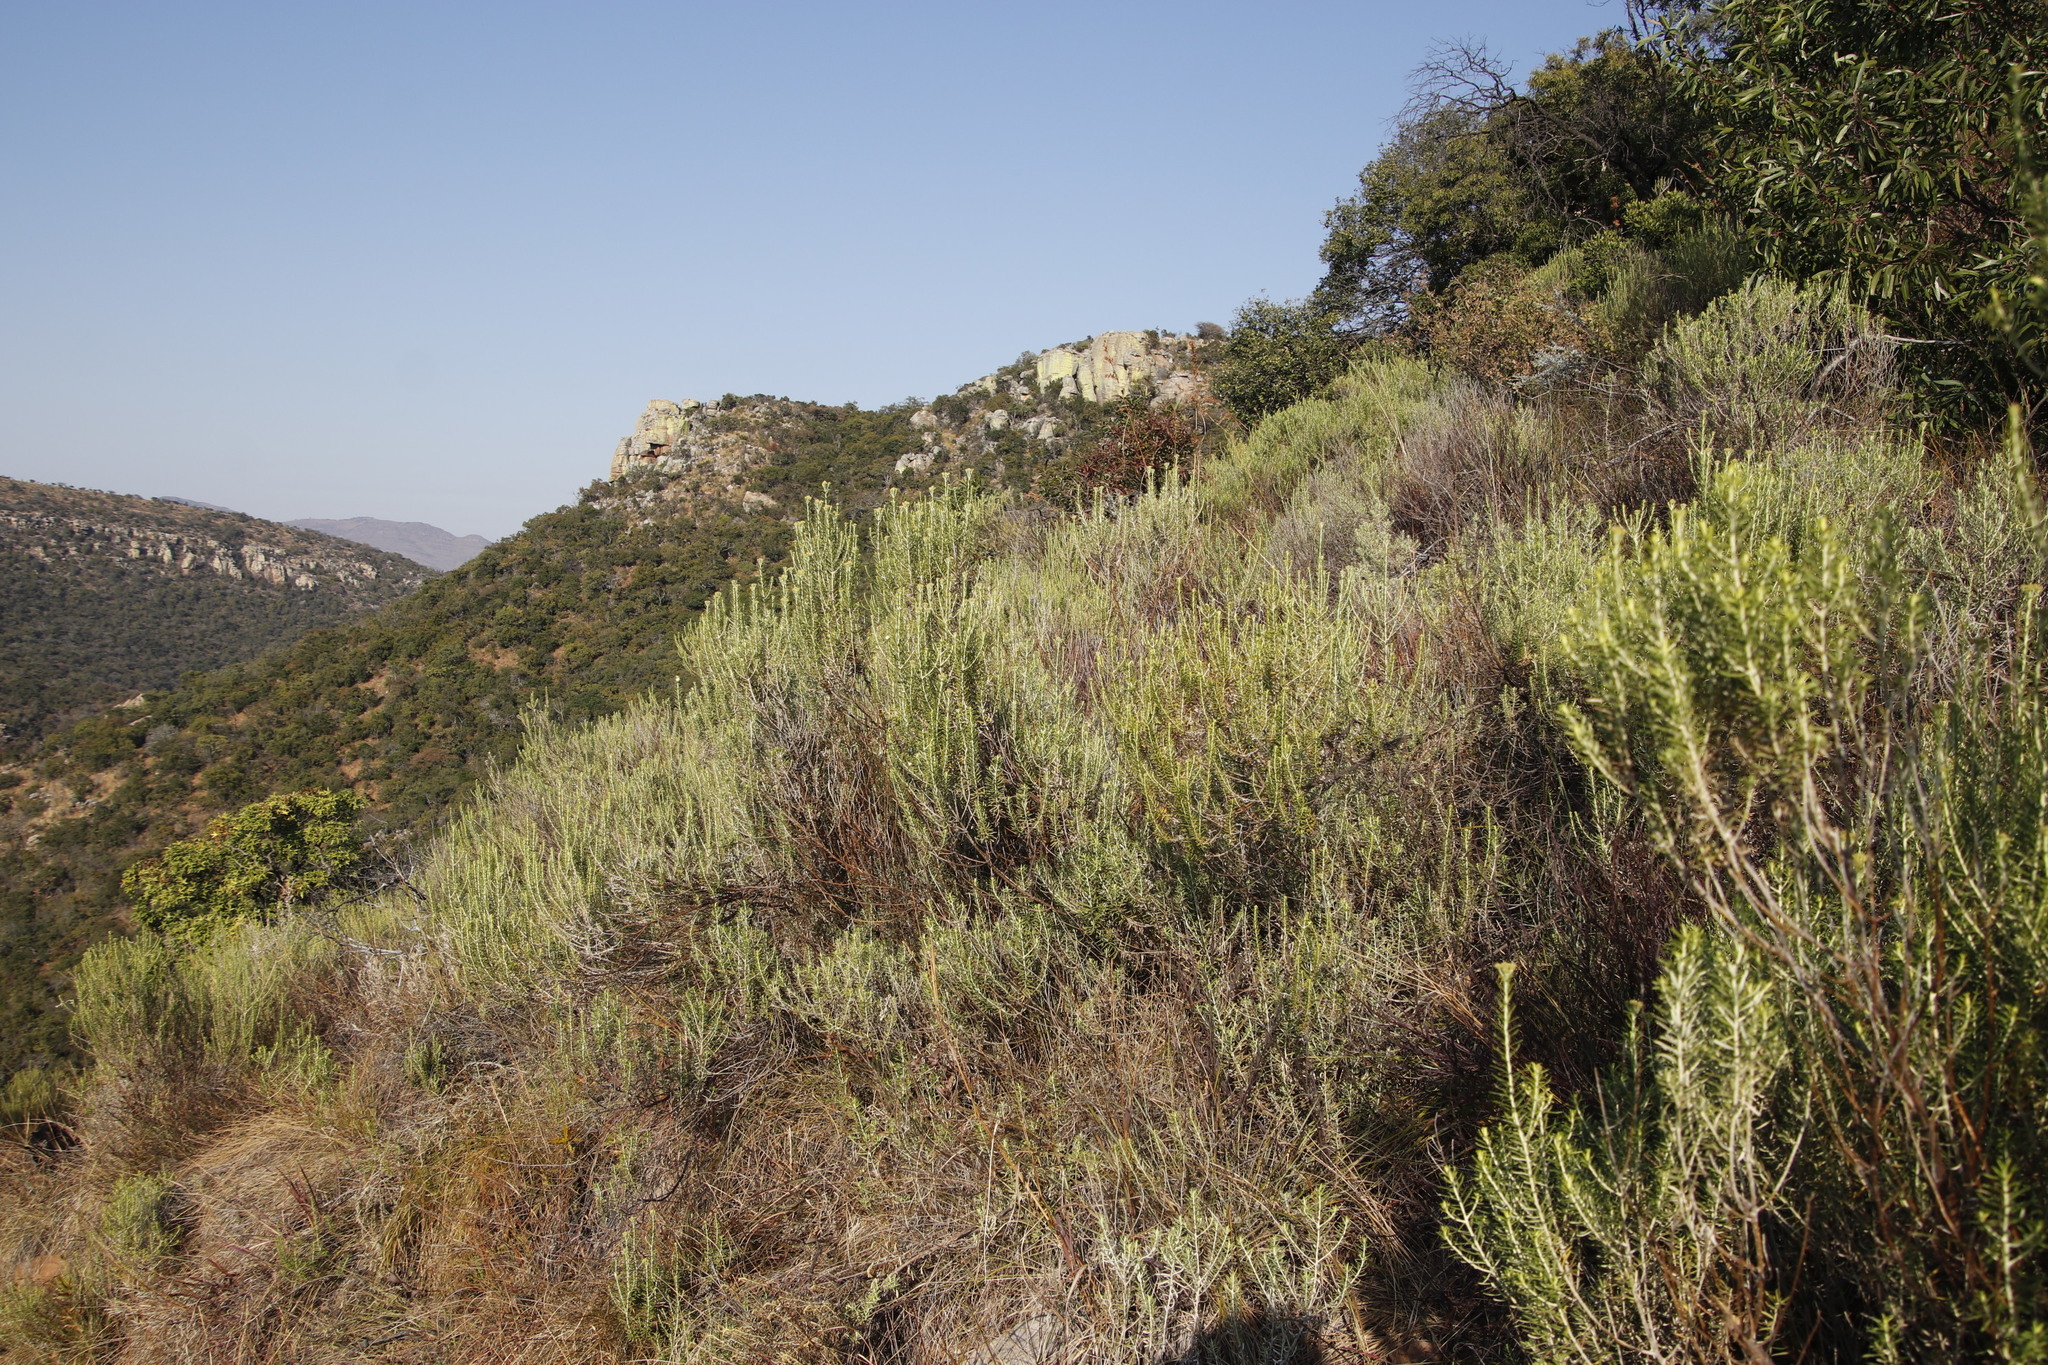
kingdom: Plantae
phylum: Tracheophyta
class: Magnoliopsida
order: Asterales
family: Asteraceae
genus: Helichrysum
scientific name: Helichrysum kraussii
